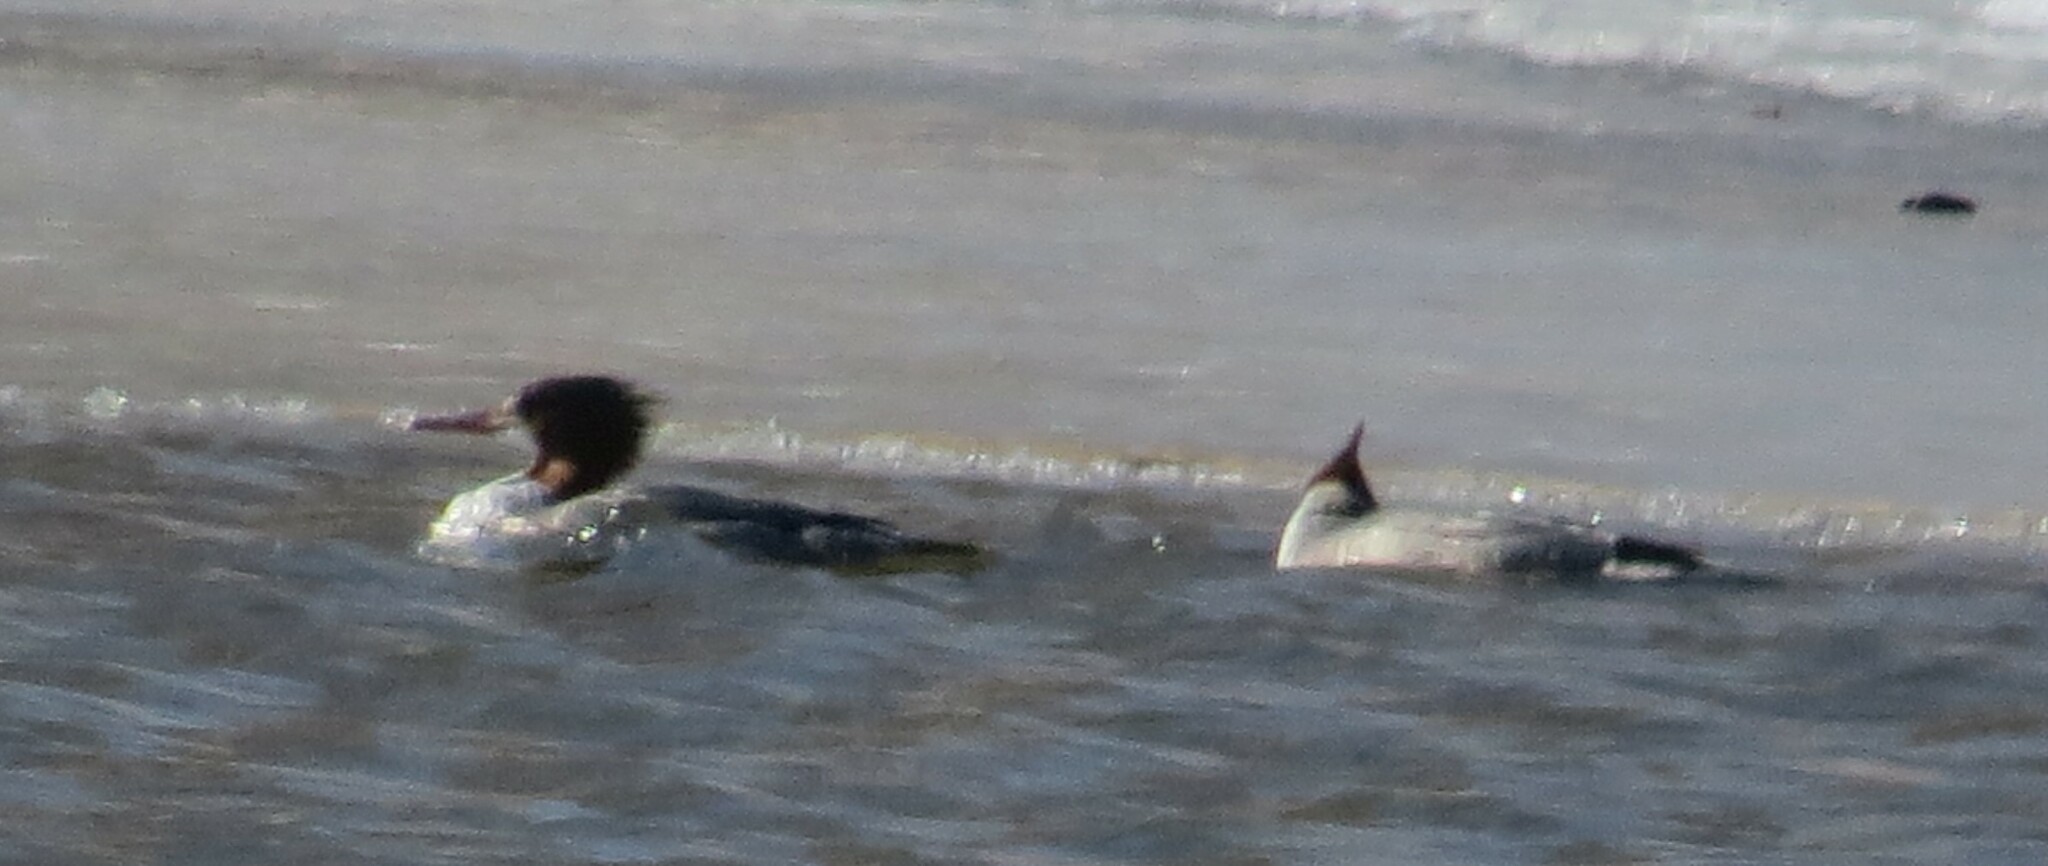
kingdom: Animalia
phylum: Chordata
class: Aves
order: Anseriformes
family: Anatidae
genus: Mergus
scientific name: Mergus merganser
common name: Common merganser
